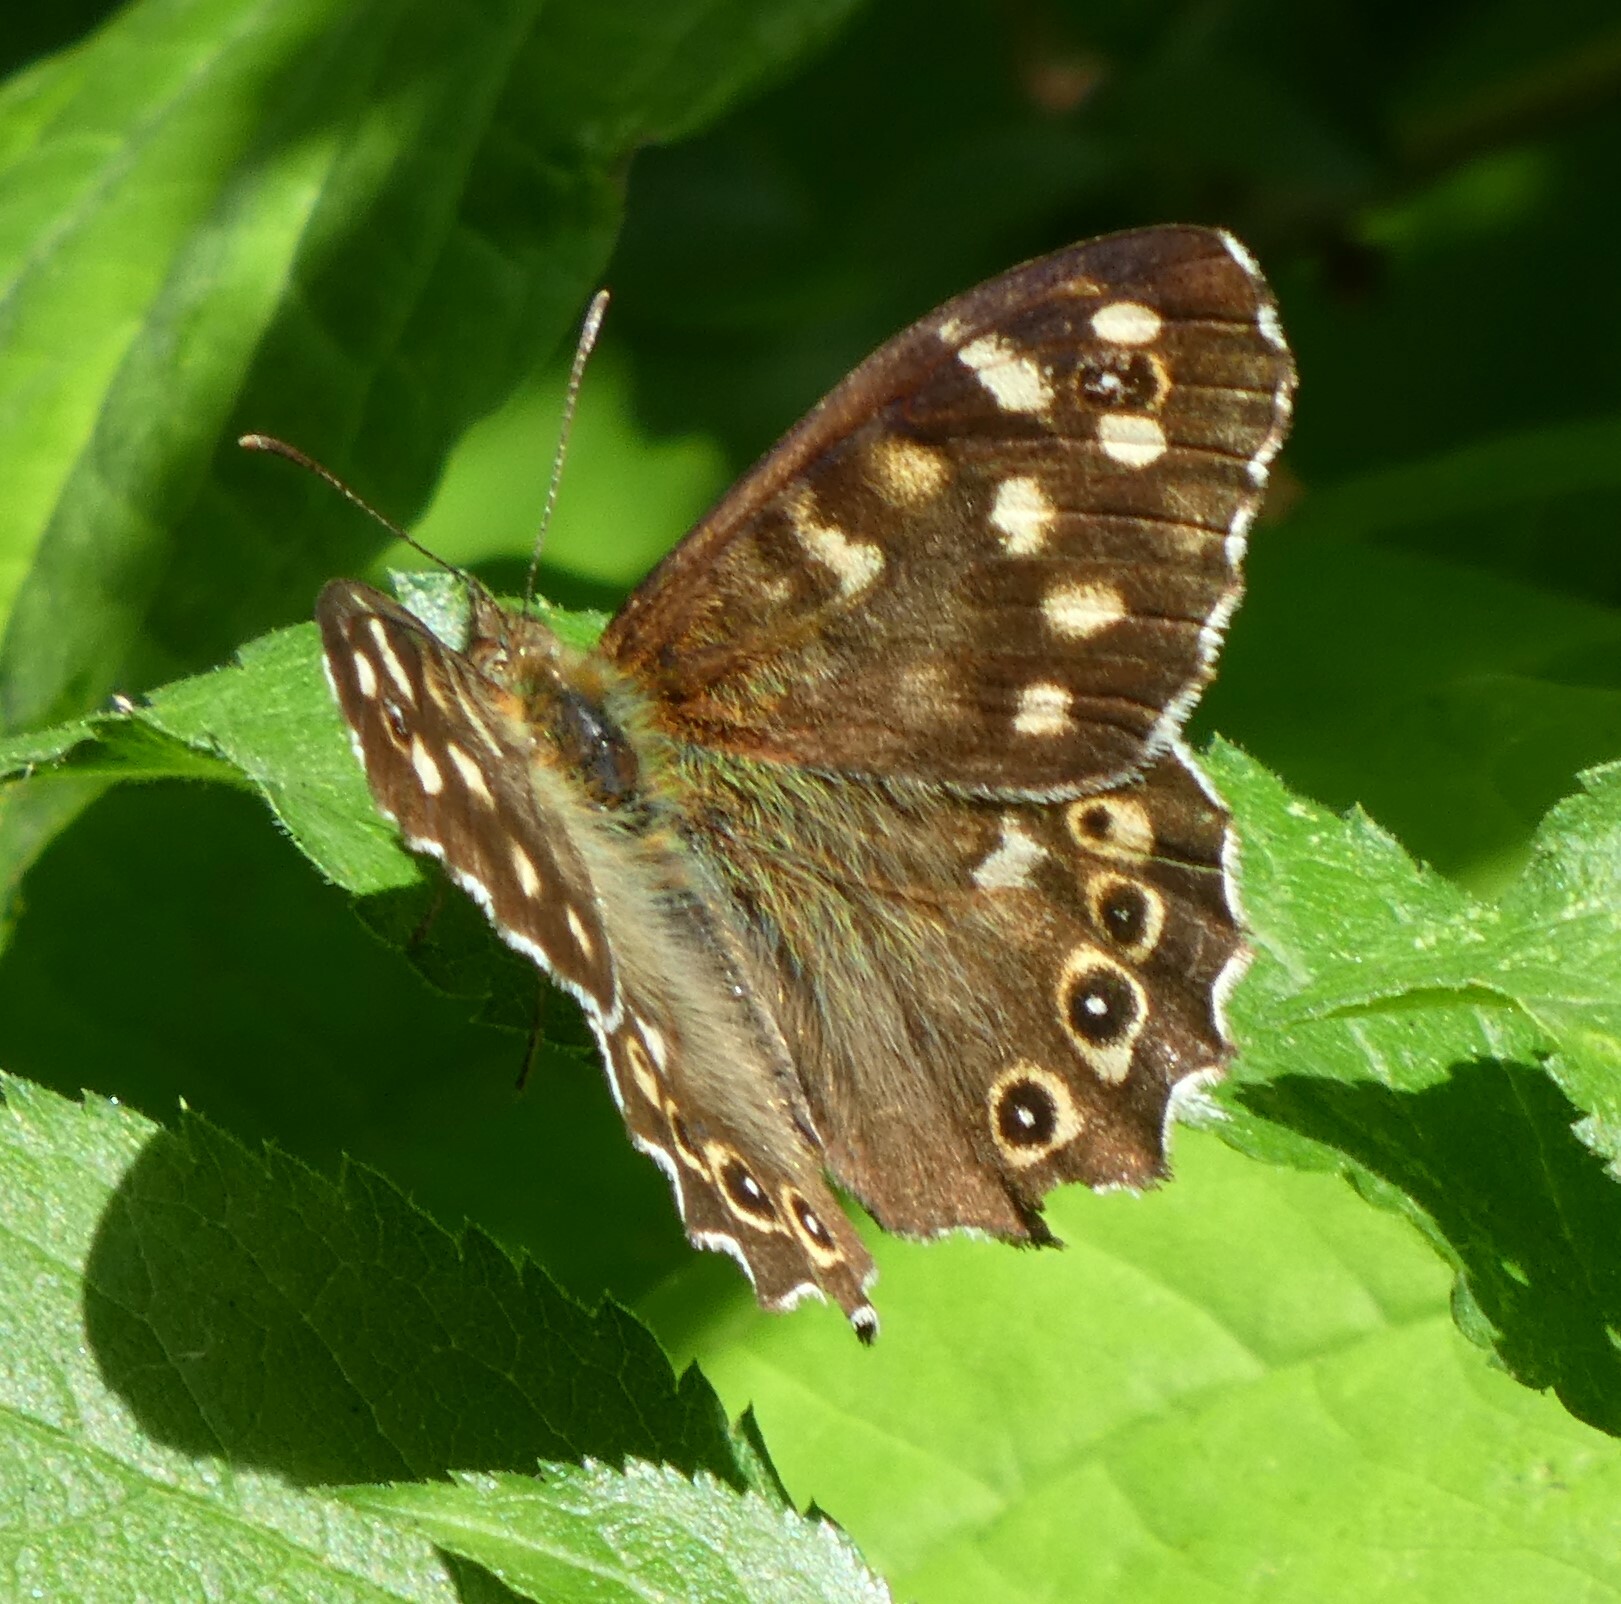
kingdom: Animalia
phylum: Arthropoda
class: Insecta
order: Lepidoptera
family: Nymphalidae
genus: Pararge
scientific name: Pararge aegeria
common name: Speckled wood
